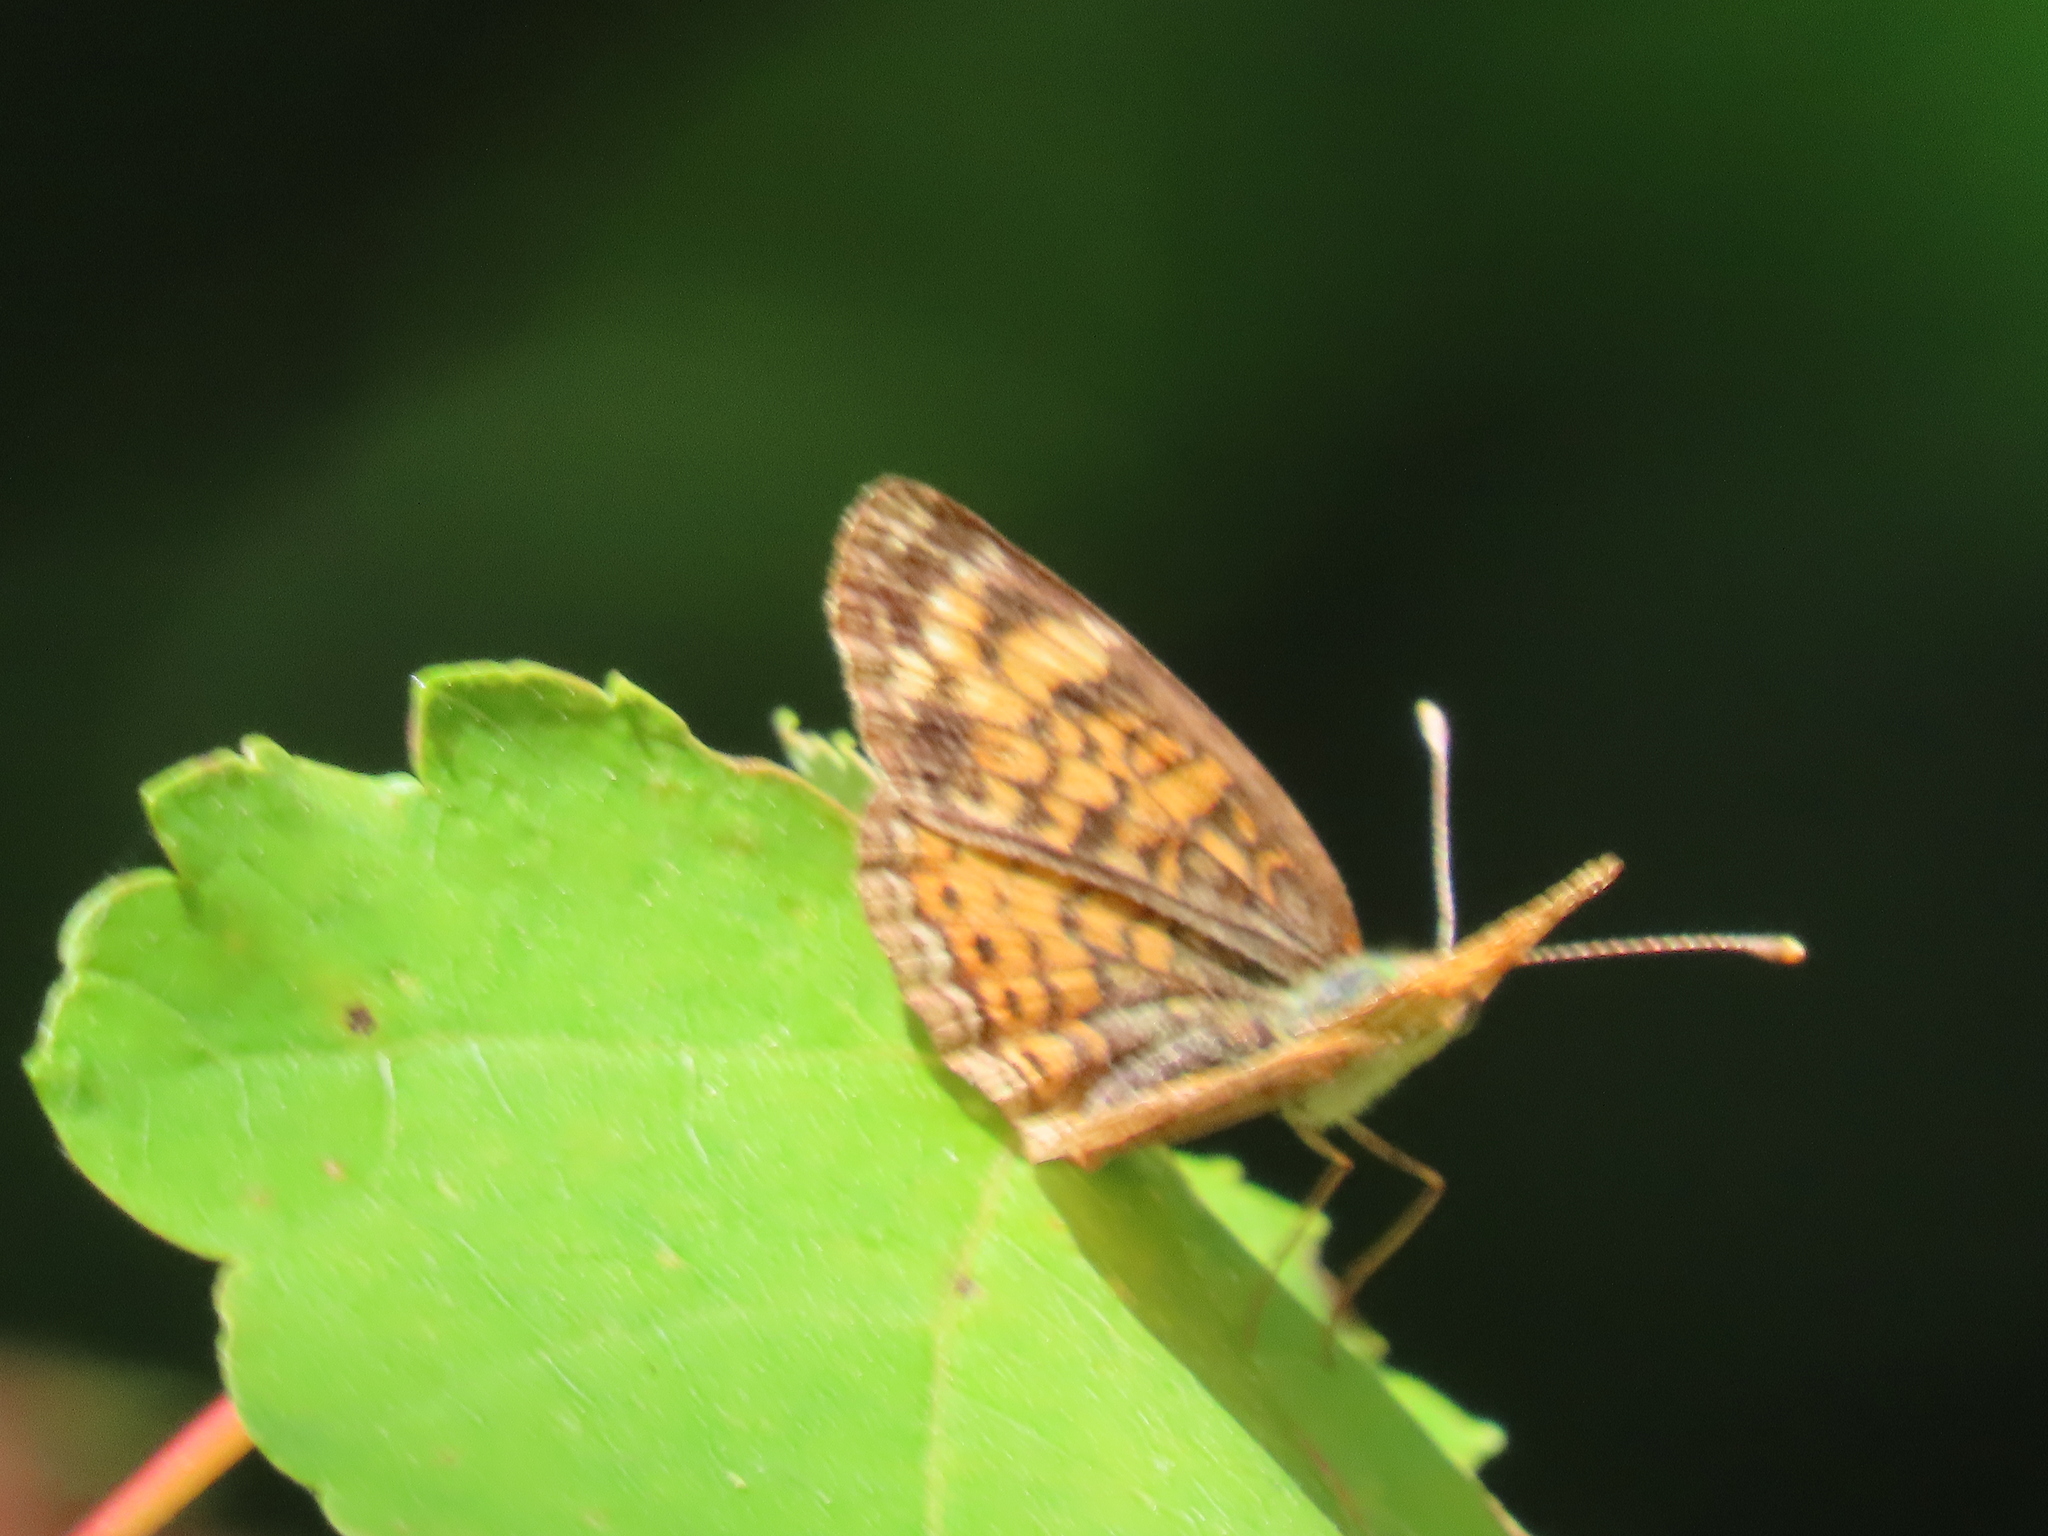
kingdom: Animalia
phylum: Arthropoda
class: Insecta
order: Lepidoptera
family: Nymphalidae
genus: Phyciodes
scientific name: Phyciodes tharos
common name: Pearl crescent
